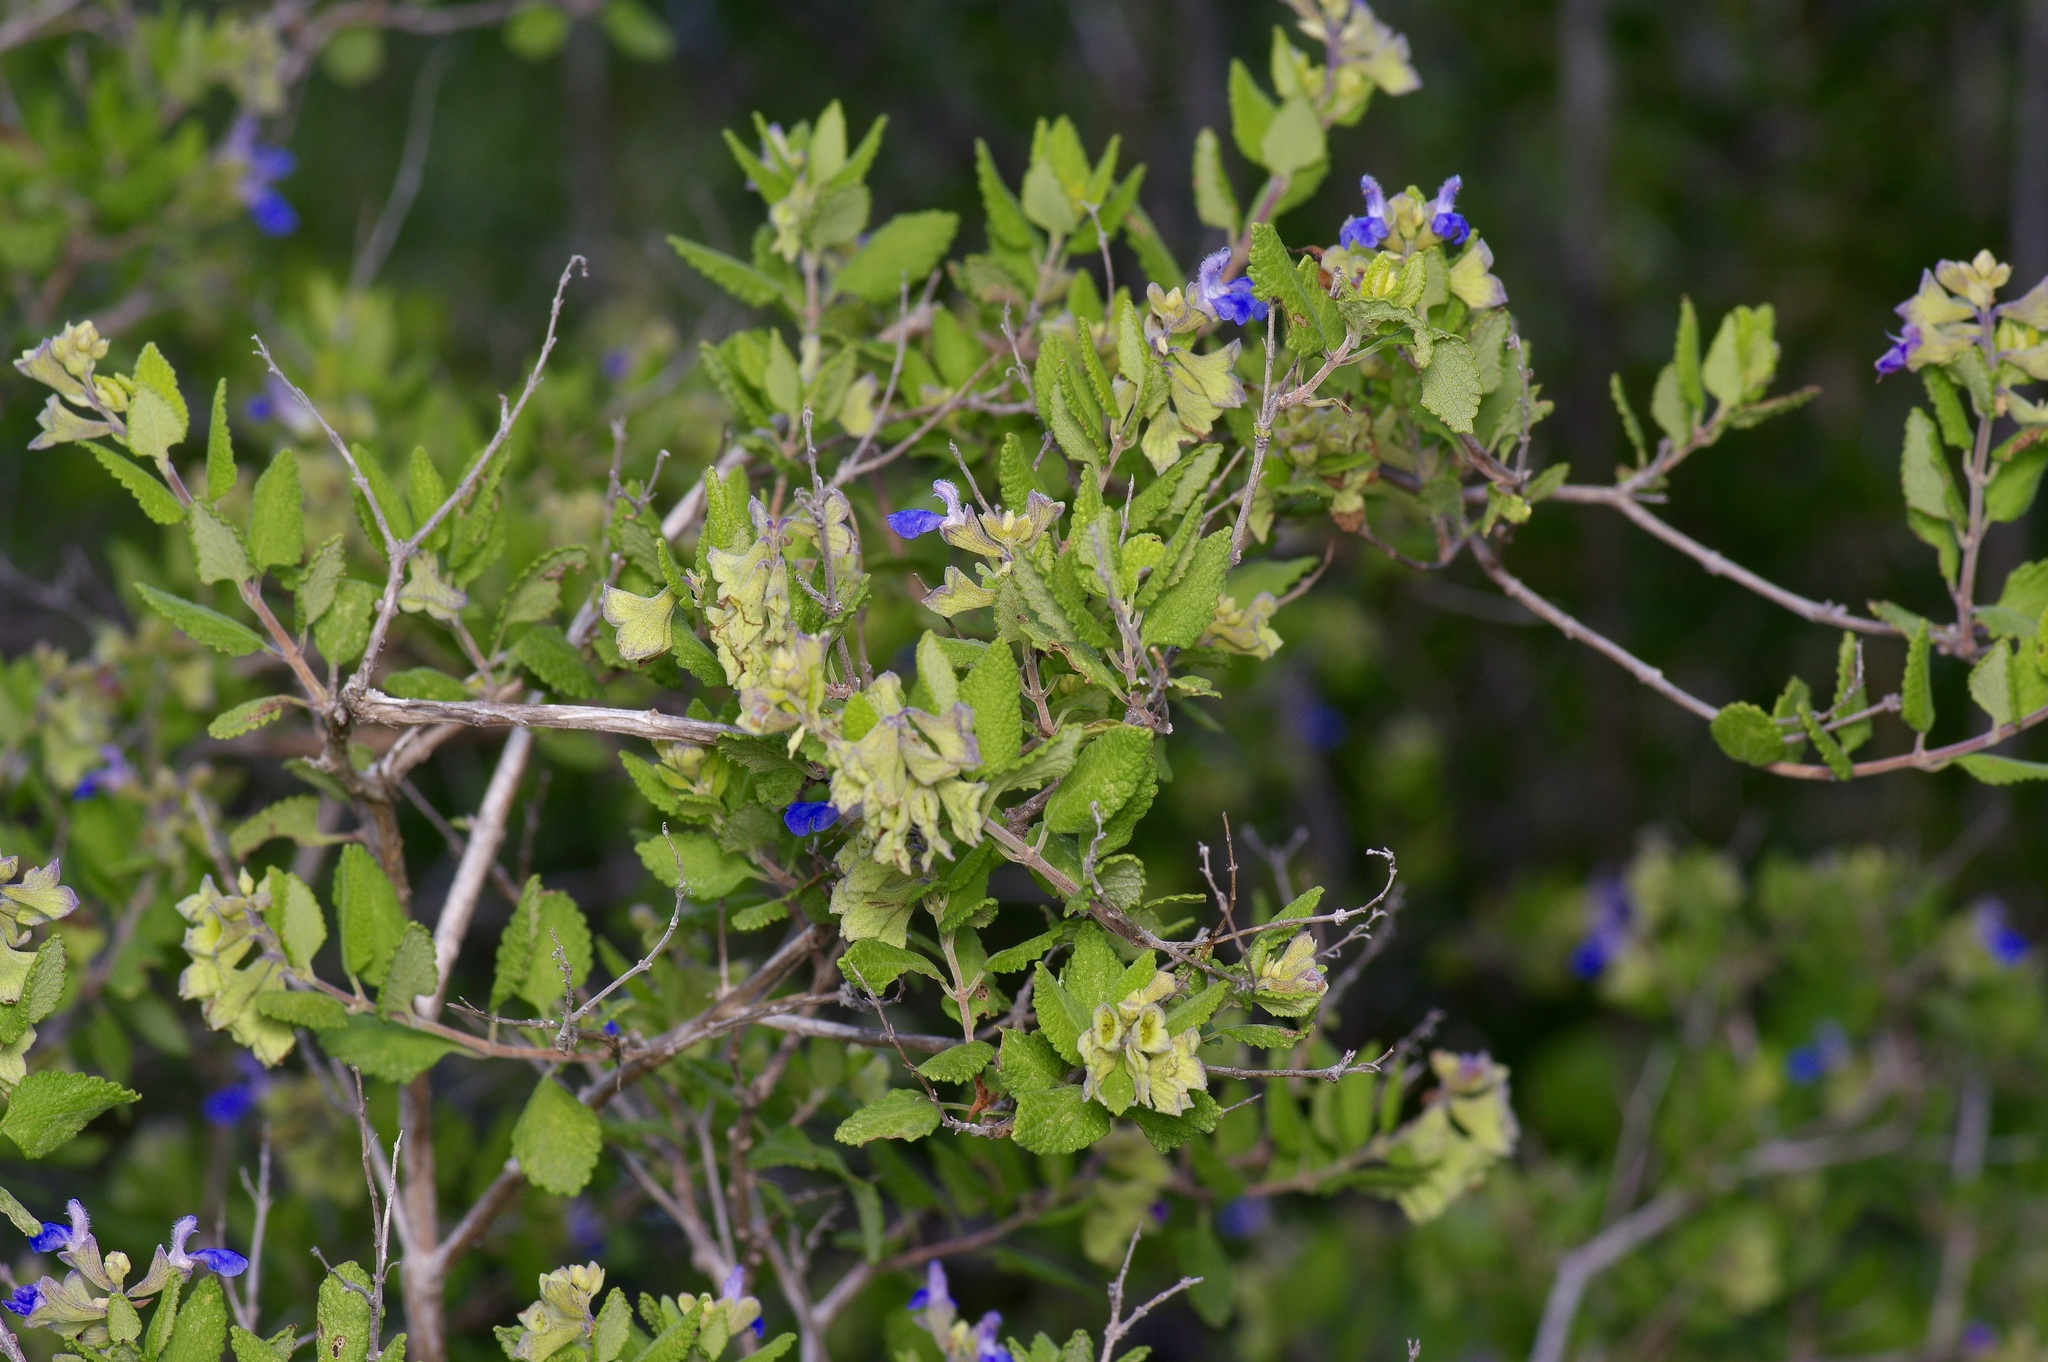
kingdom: Plantae
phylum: Tracheophyta
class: Magnoliopsida
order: Lamiales
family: Lamiaceae
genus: Salvia
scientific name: Salvia ballotiflora
